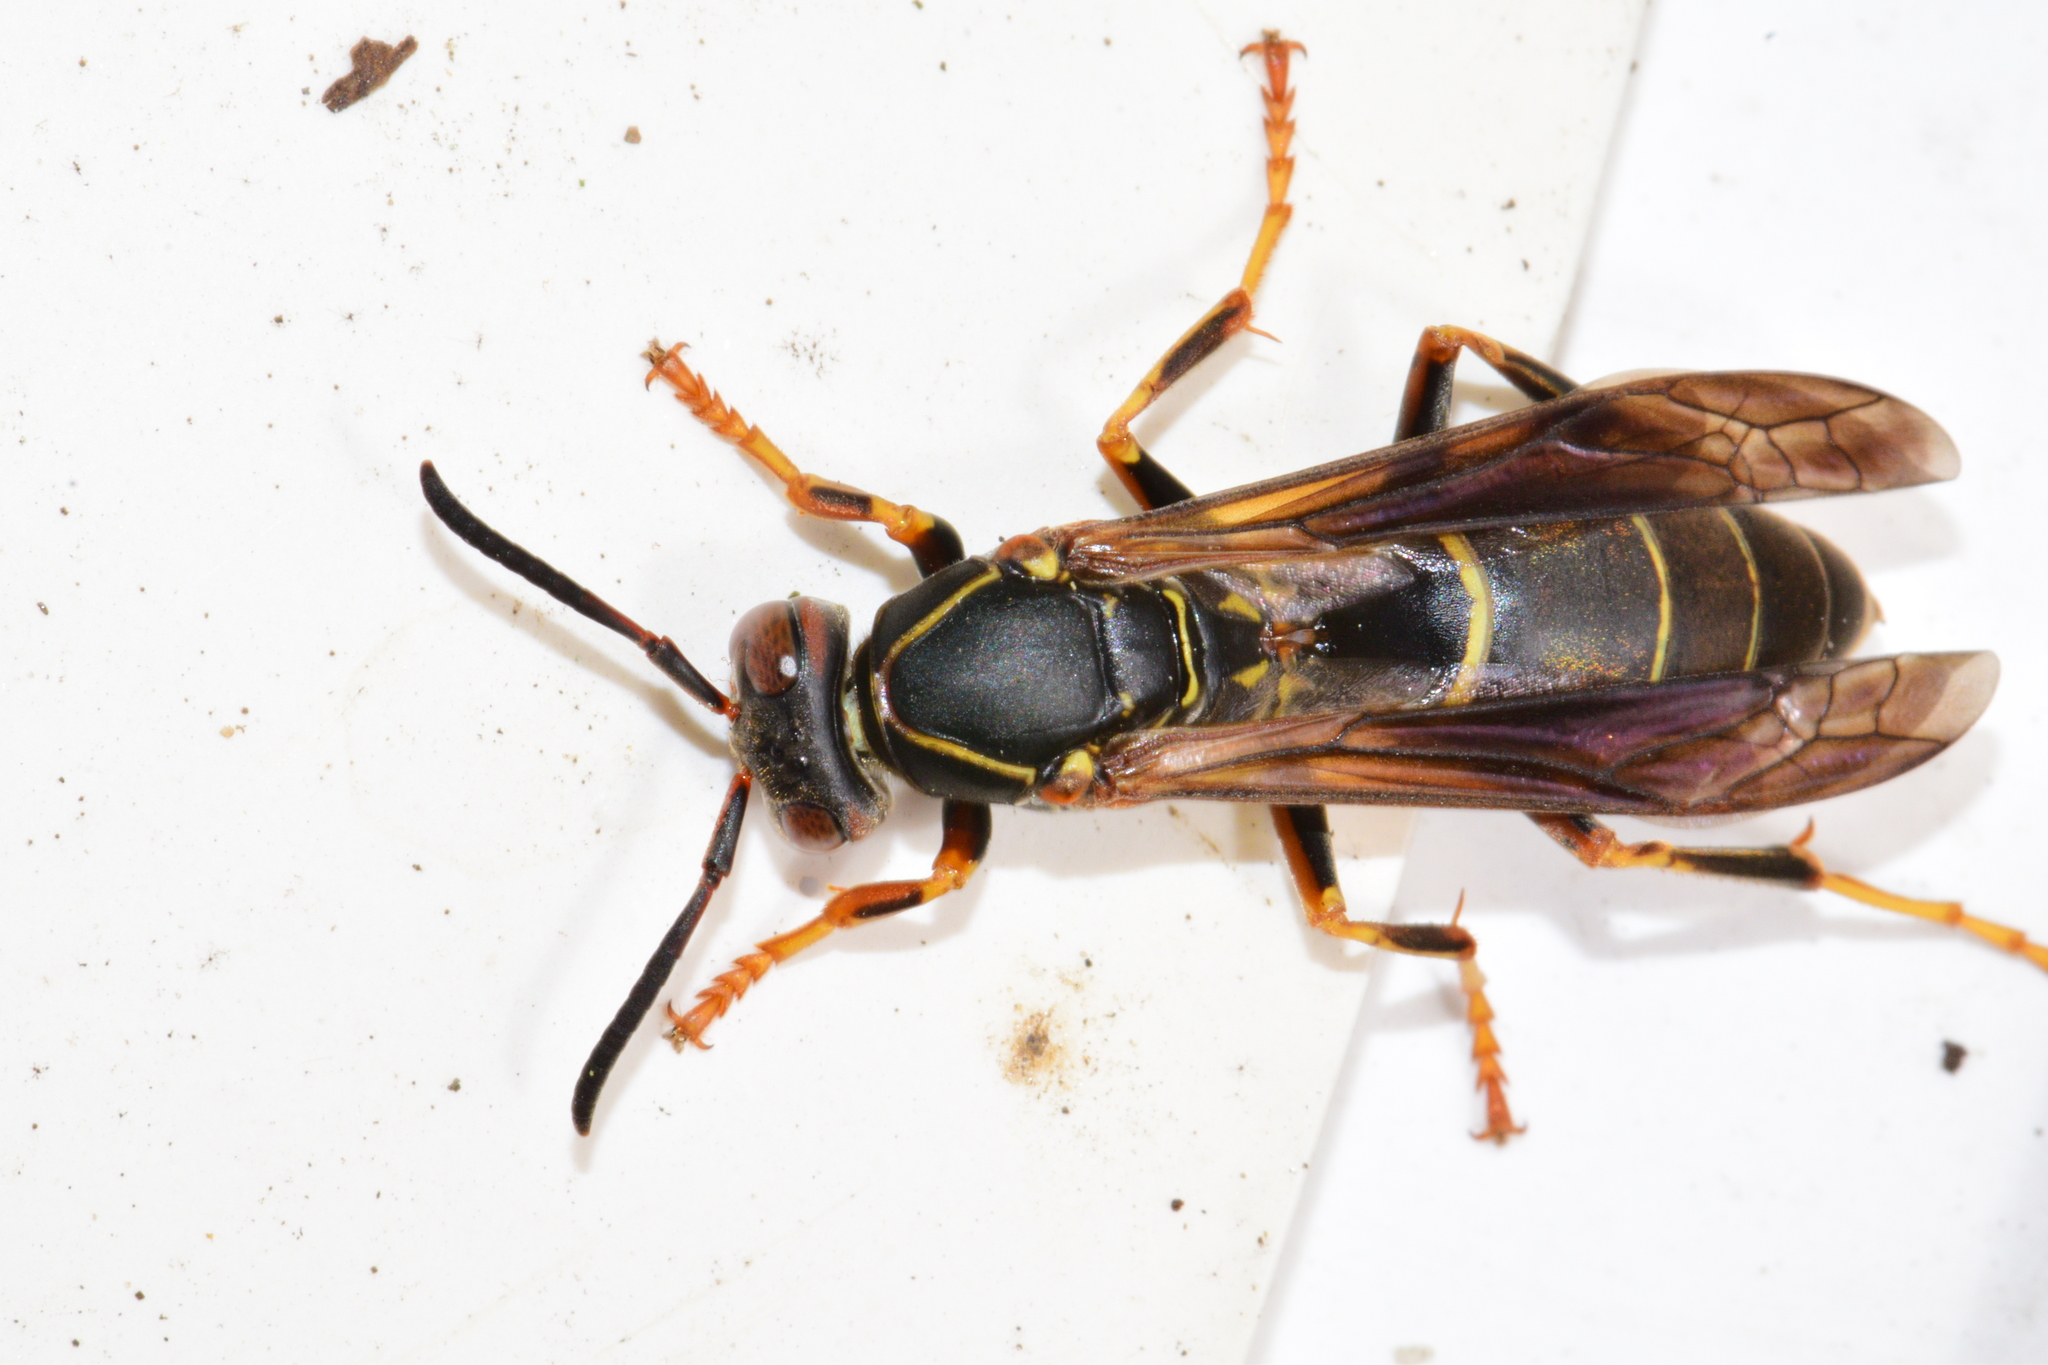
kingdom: Animalia
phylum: Arthropoda
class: Insecta
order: Hymenoptera
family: Eumenidae
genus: Polistes
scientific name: Polistes fuscatus
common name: Dark paper wasp
